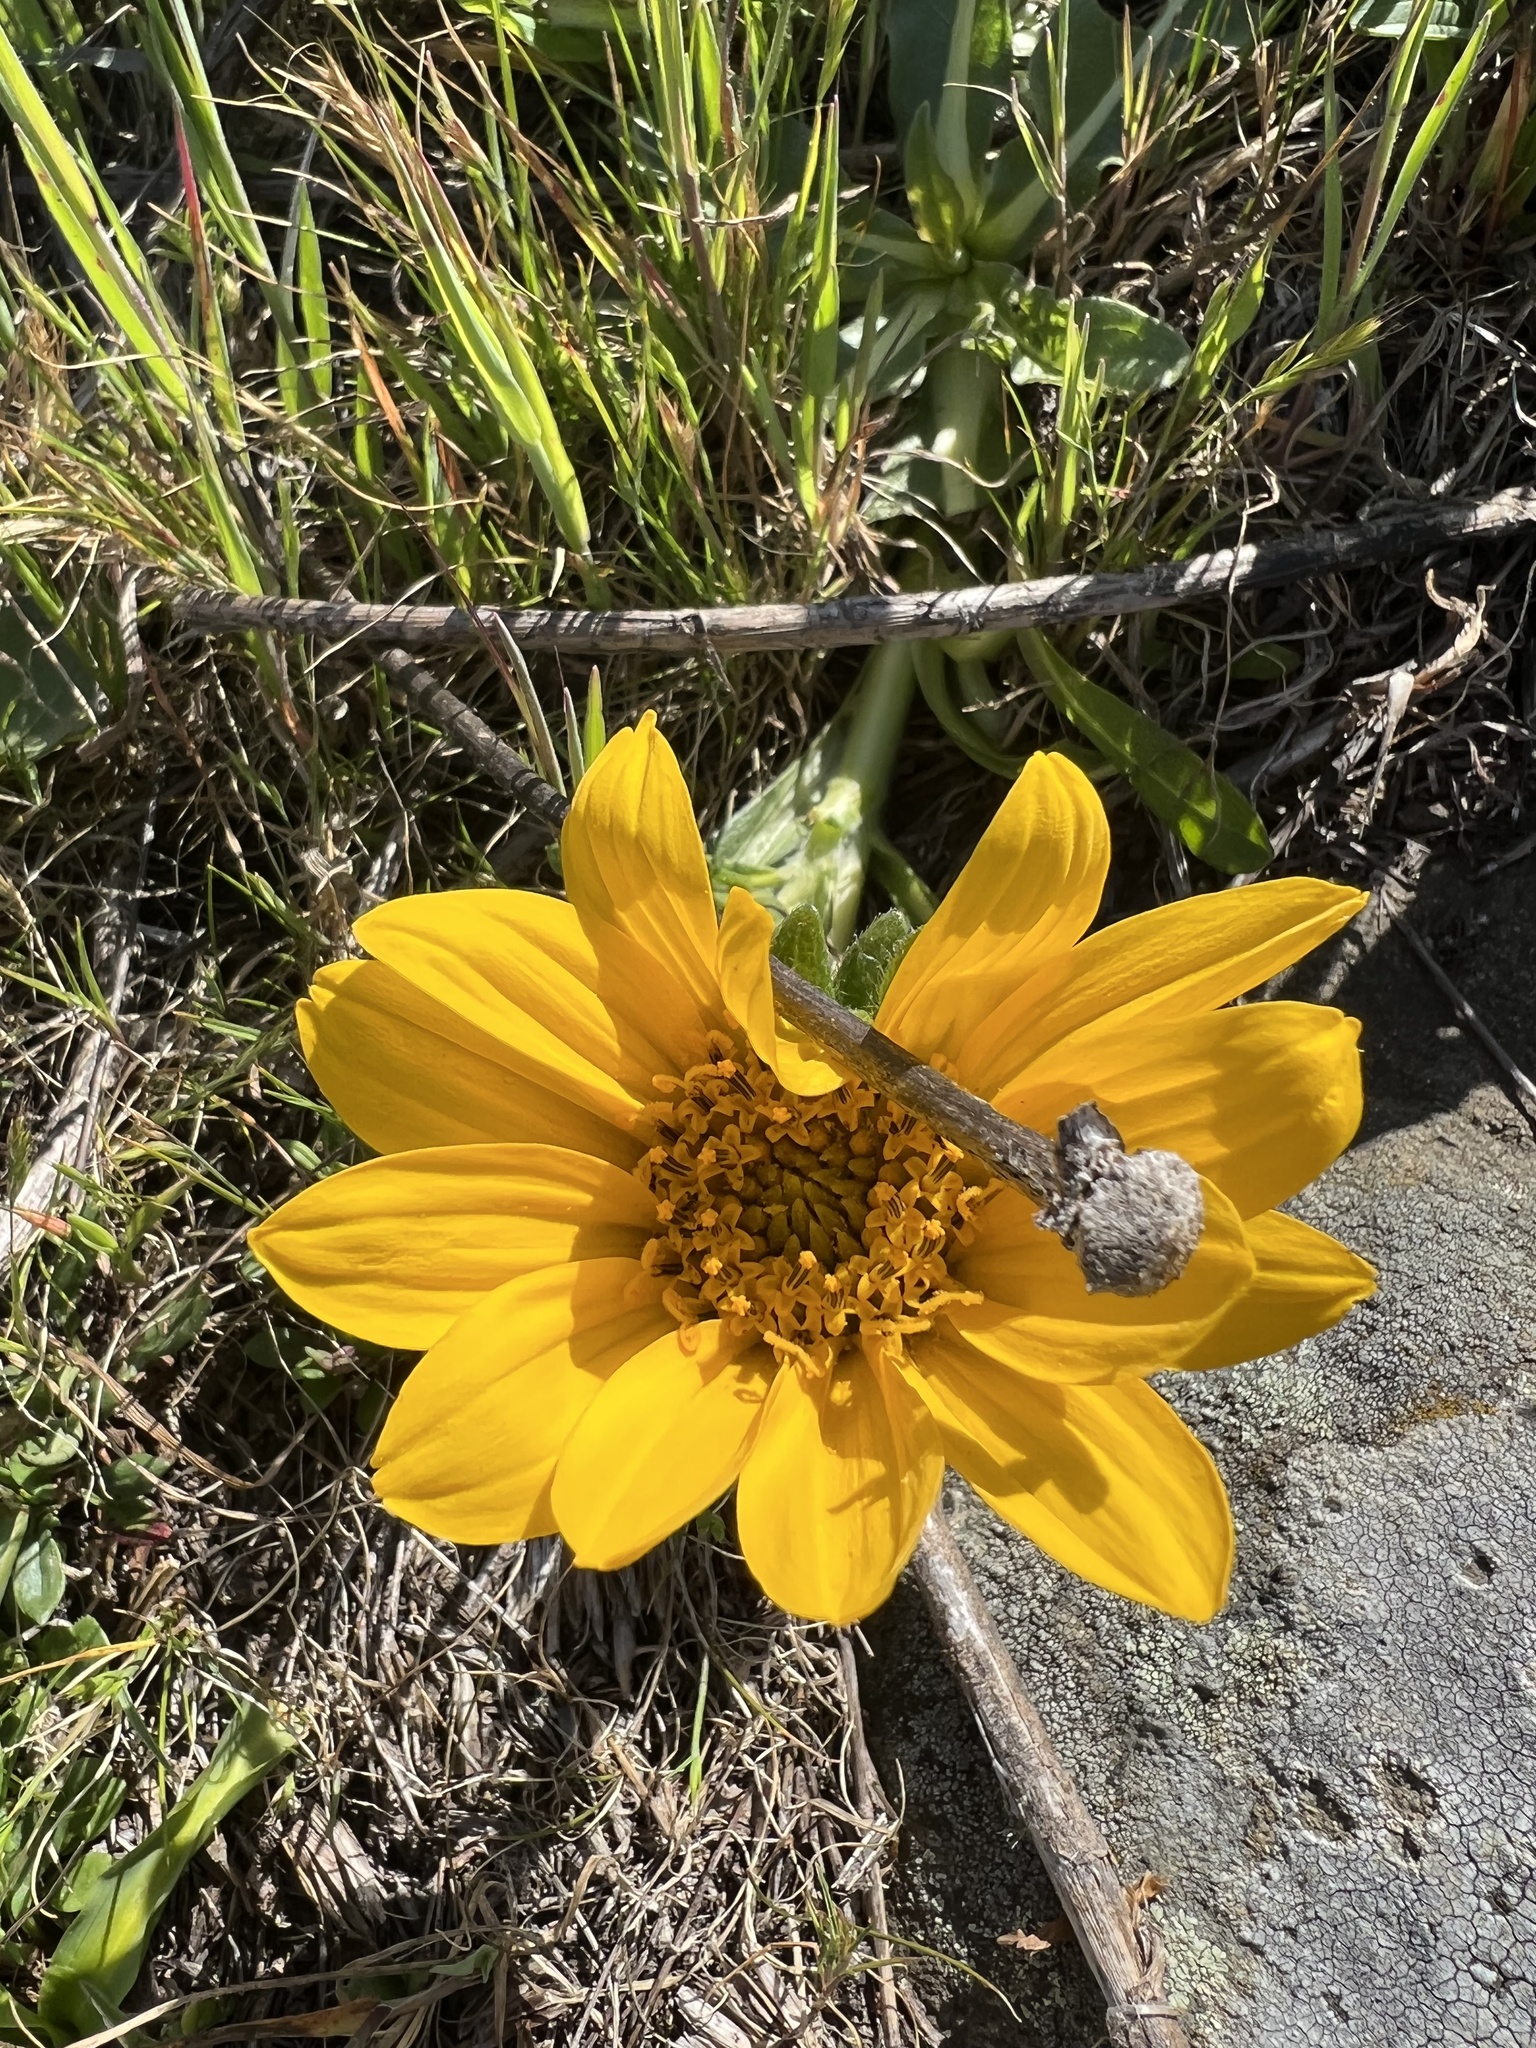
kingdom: Plantae
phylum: Tracheophyta
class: Magnoliopsida
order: Asterales
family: Asteraceae
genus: Wyethia
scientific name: Wyethia angustifolia
